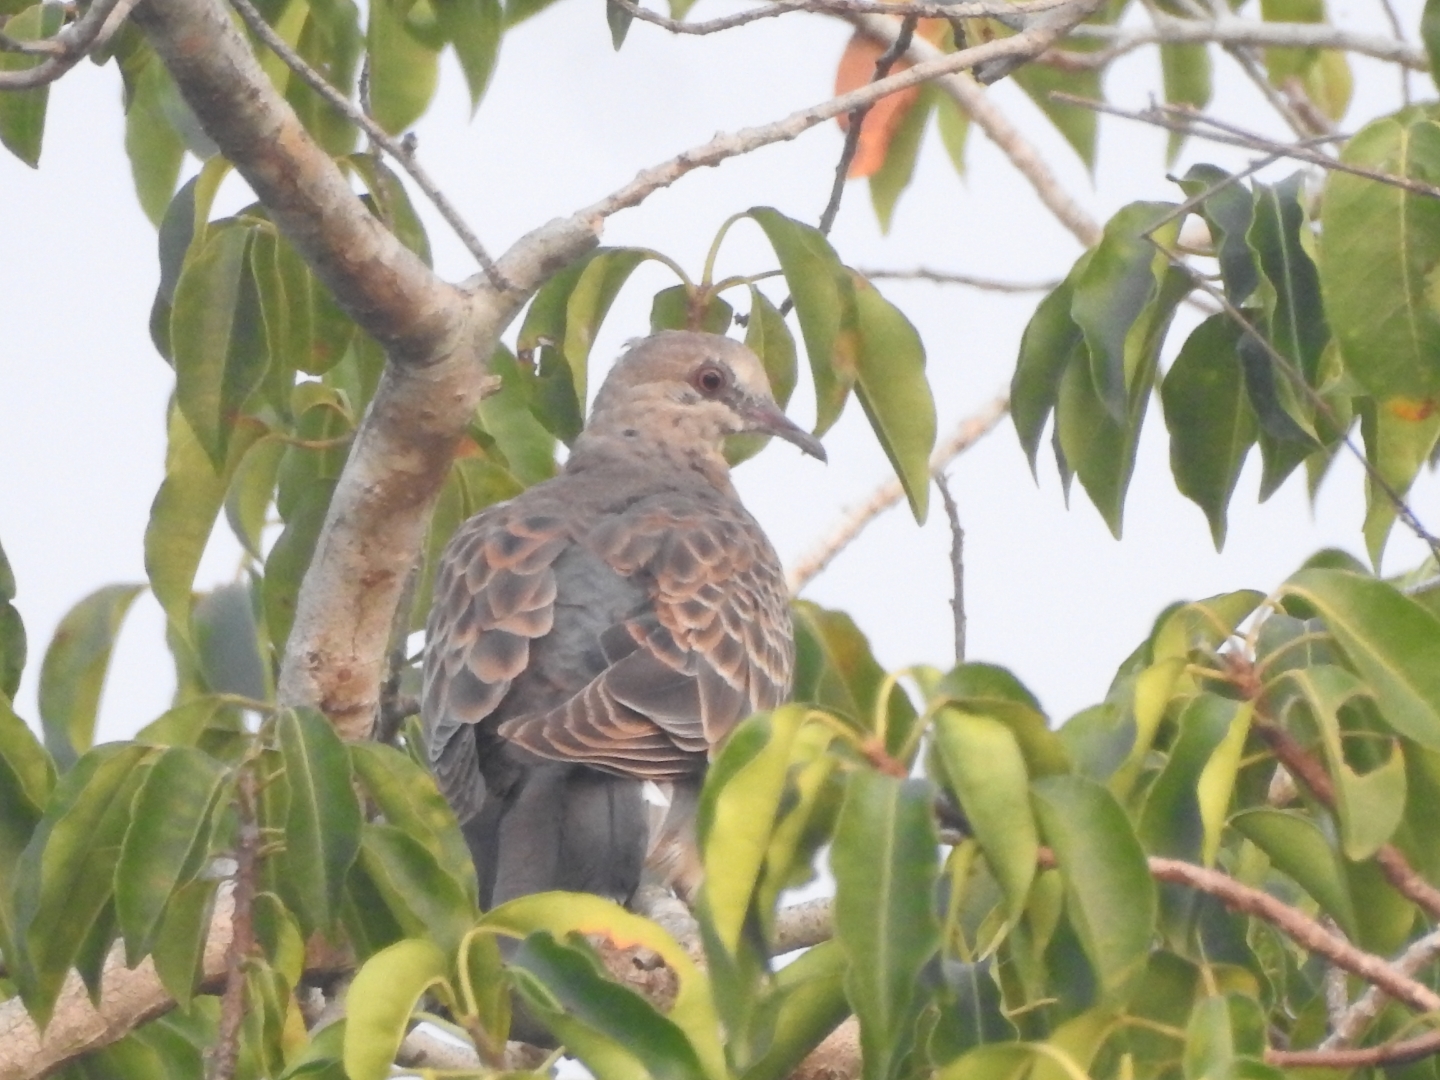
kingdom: Animalia
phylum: Chordata
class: Aves
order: Columbiformes
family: Columbidae
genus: Streptopelia
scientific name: Streptopelia orientalis
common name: Oriental turtle dove
